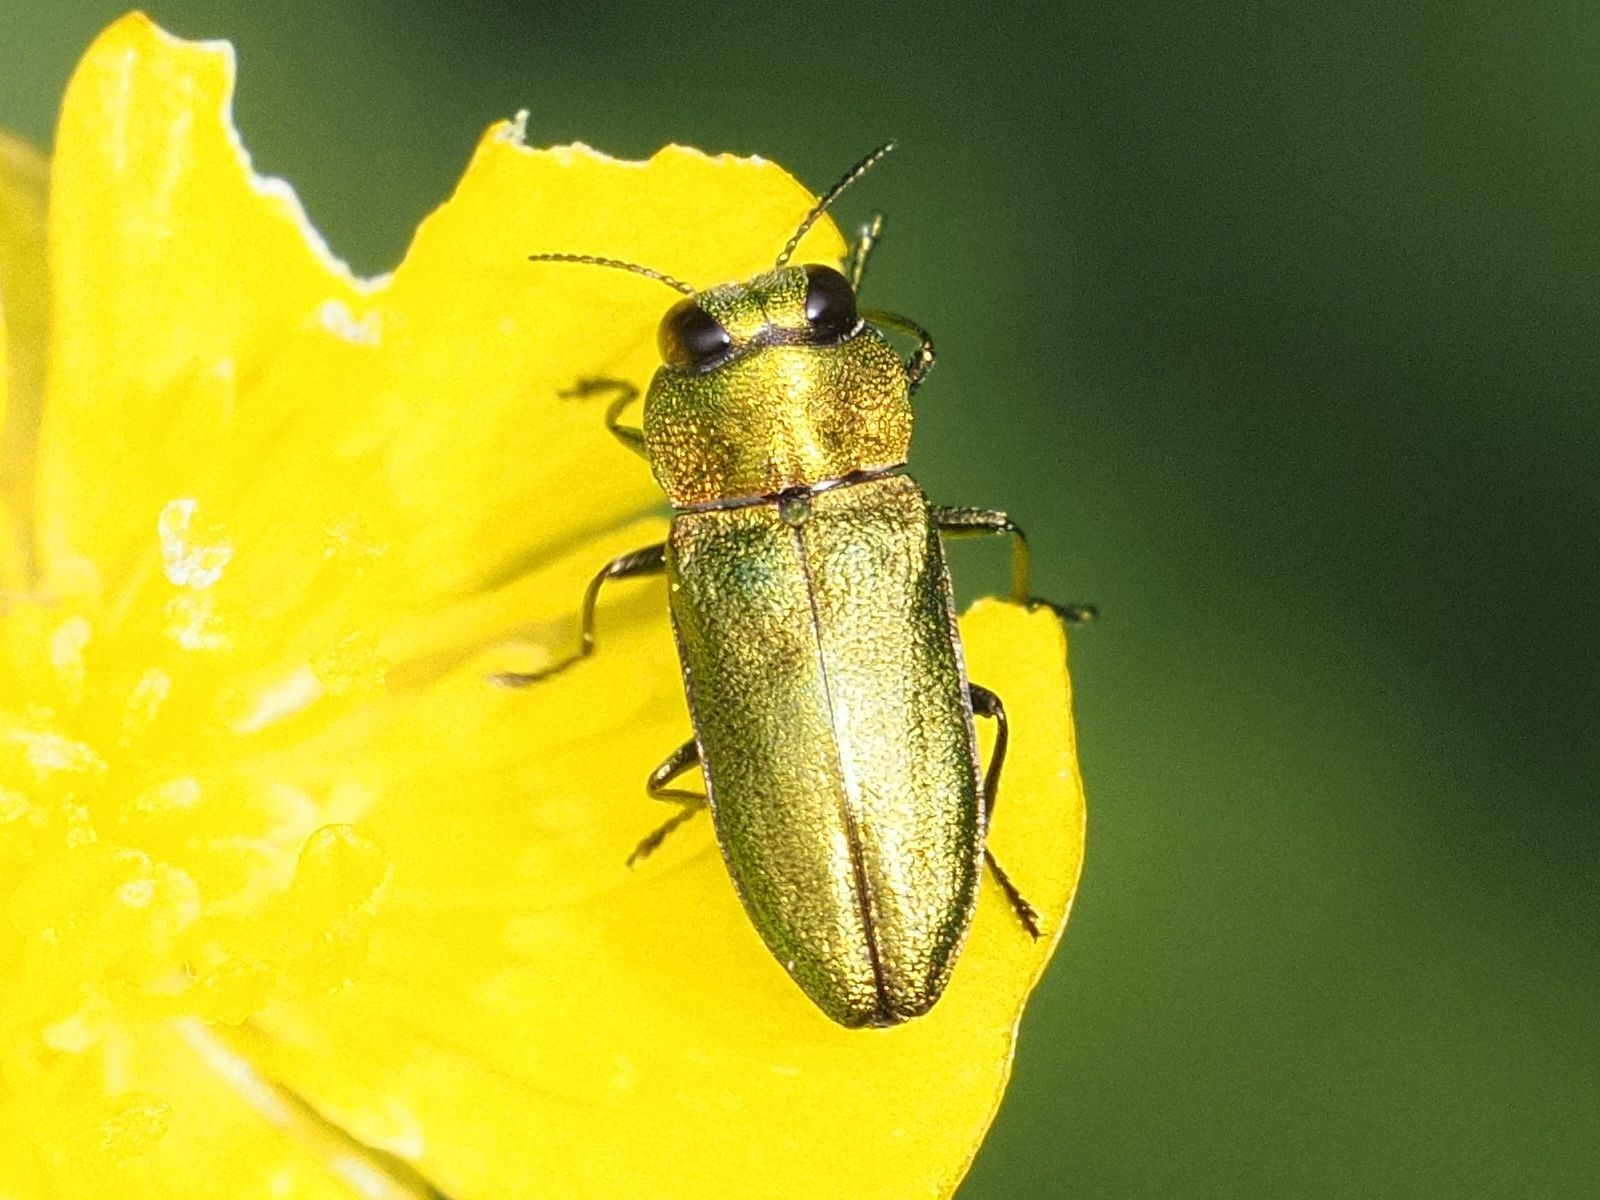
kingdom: Animalia
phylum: Arthropoda
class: Insecta
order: Coleoptera
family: Buprestidae
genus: Anthaxia
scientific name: Anthaxia nitidula
